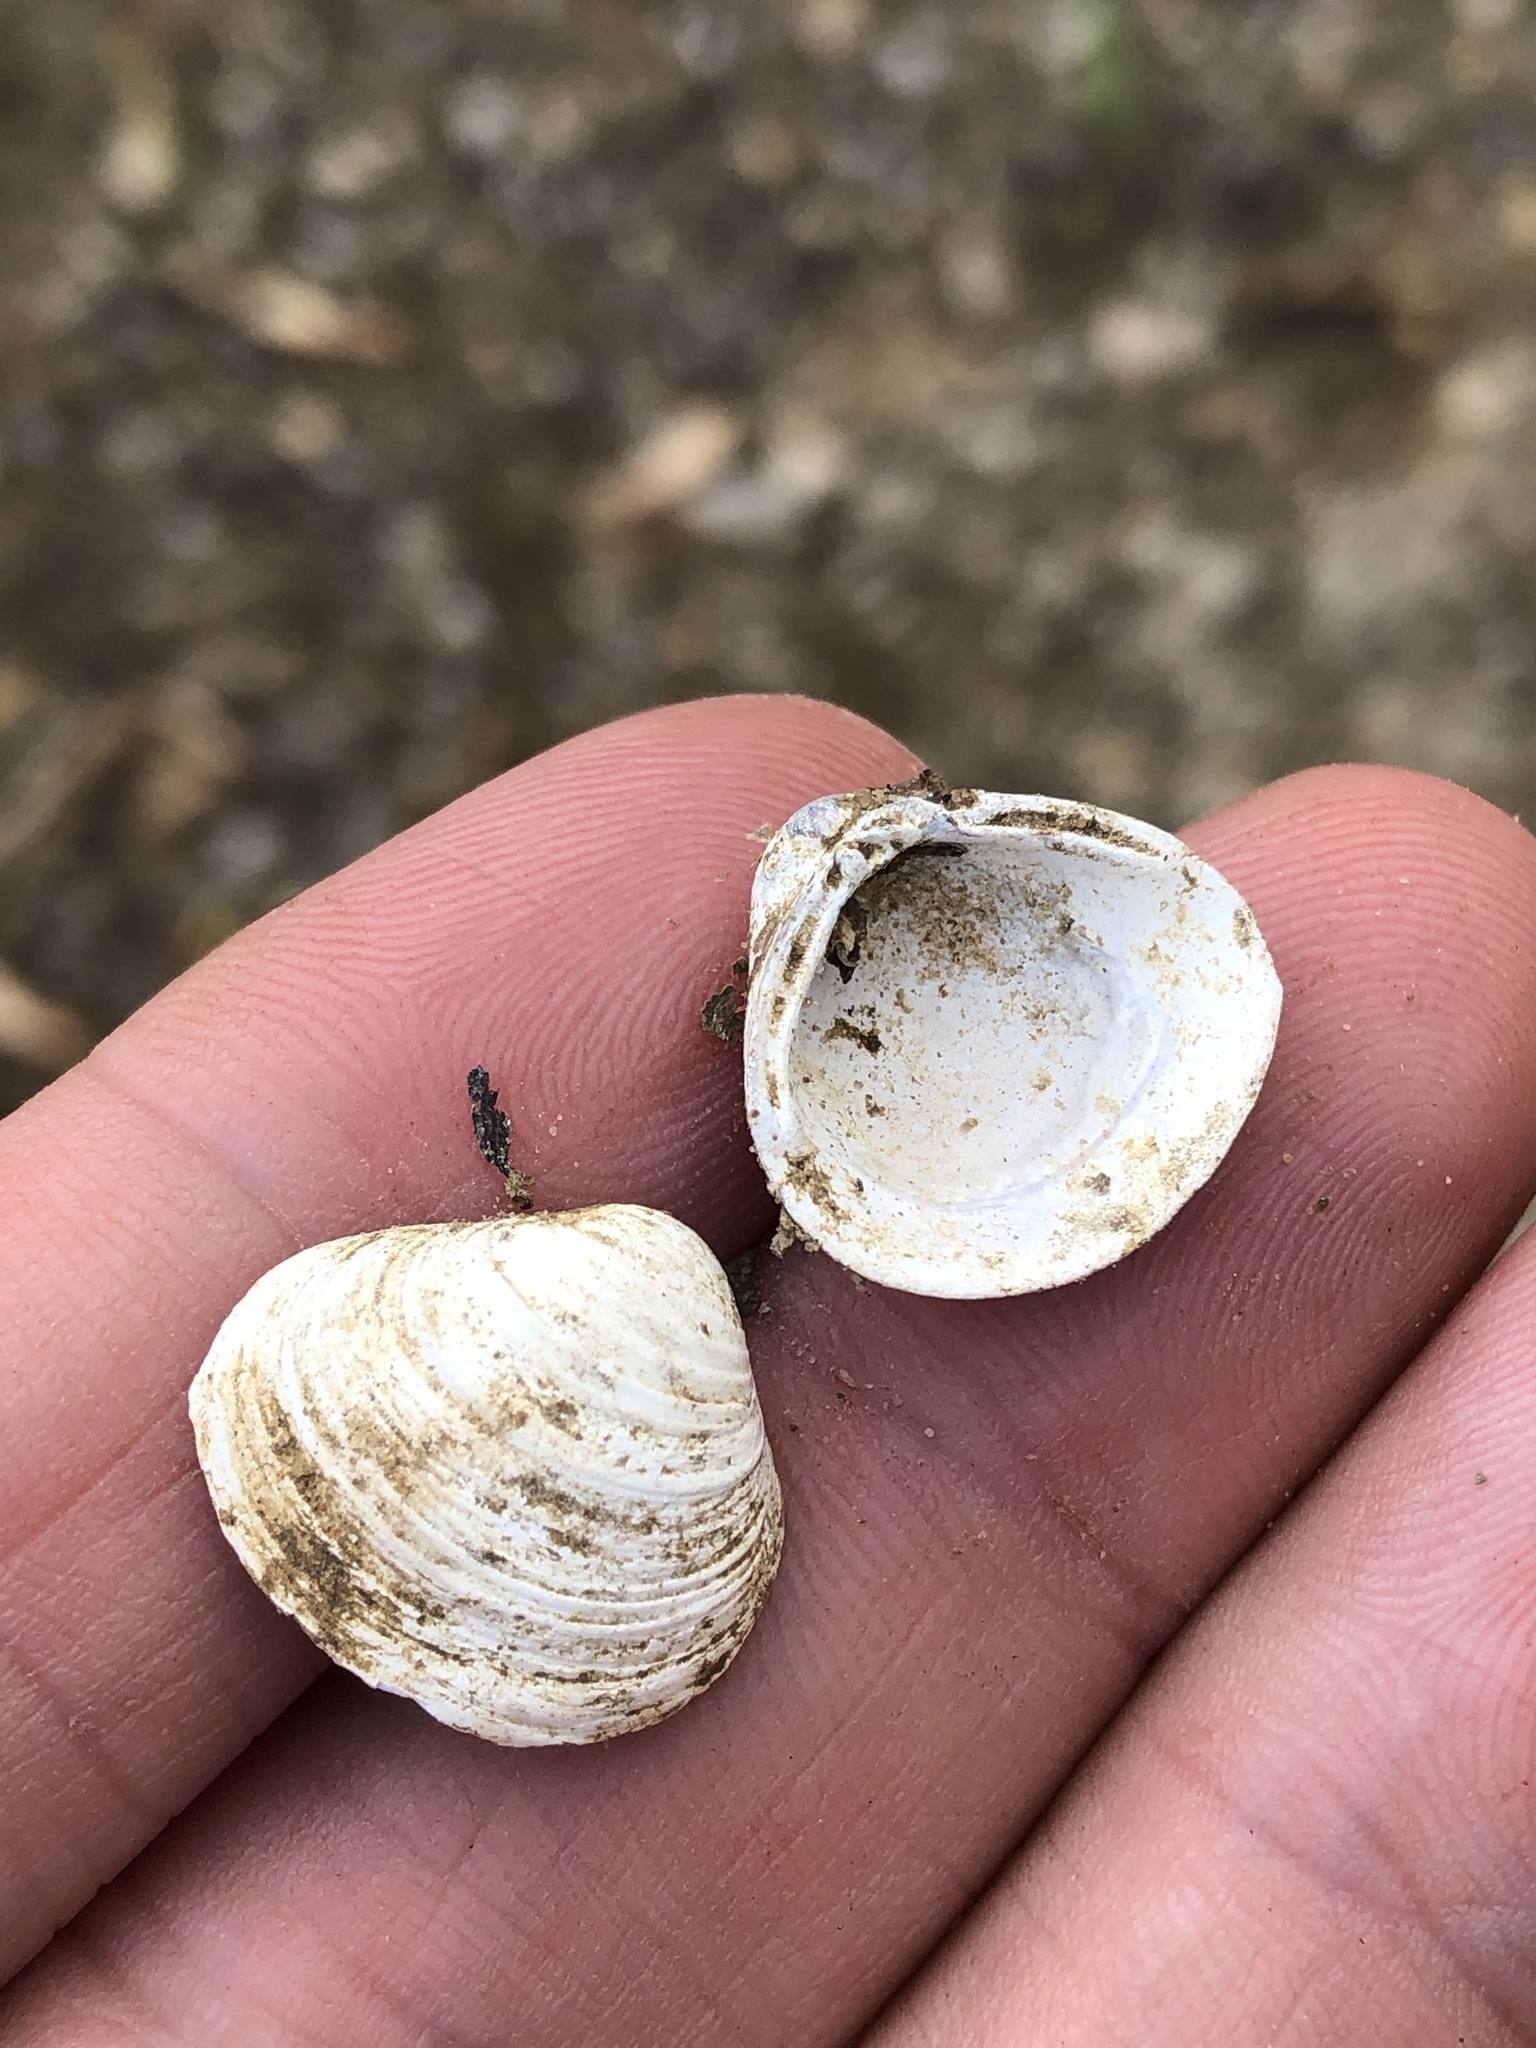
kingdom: Animalia
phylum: Mollusca
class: Bivalvia
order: Venerida
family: Cyrenidae
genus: Corbicula
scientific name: Corbicula fluminea
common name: Asian clam
